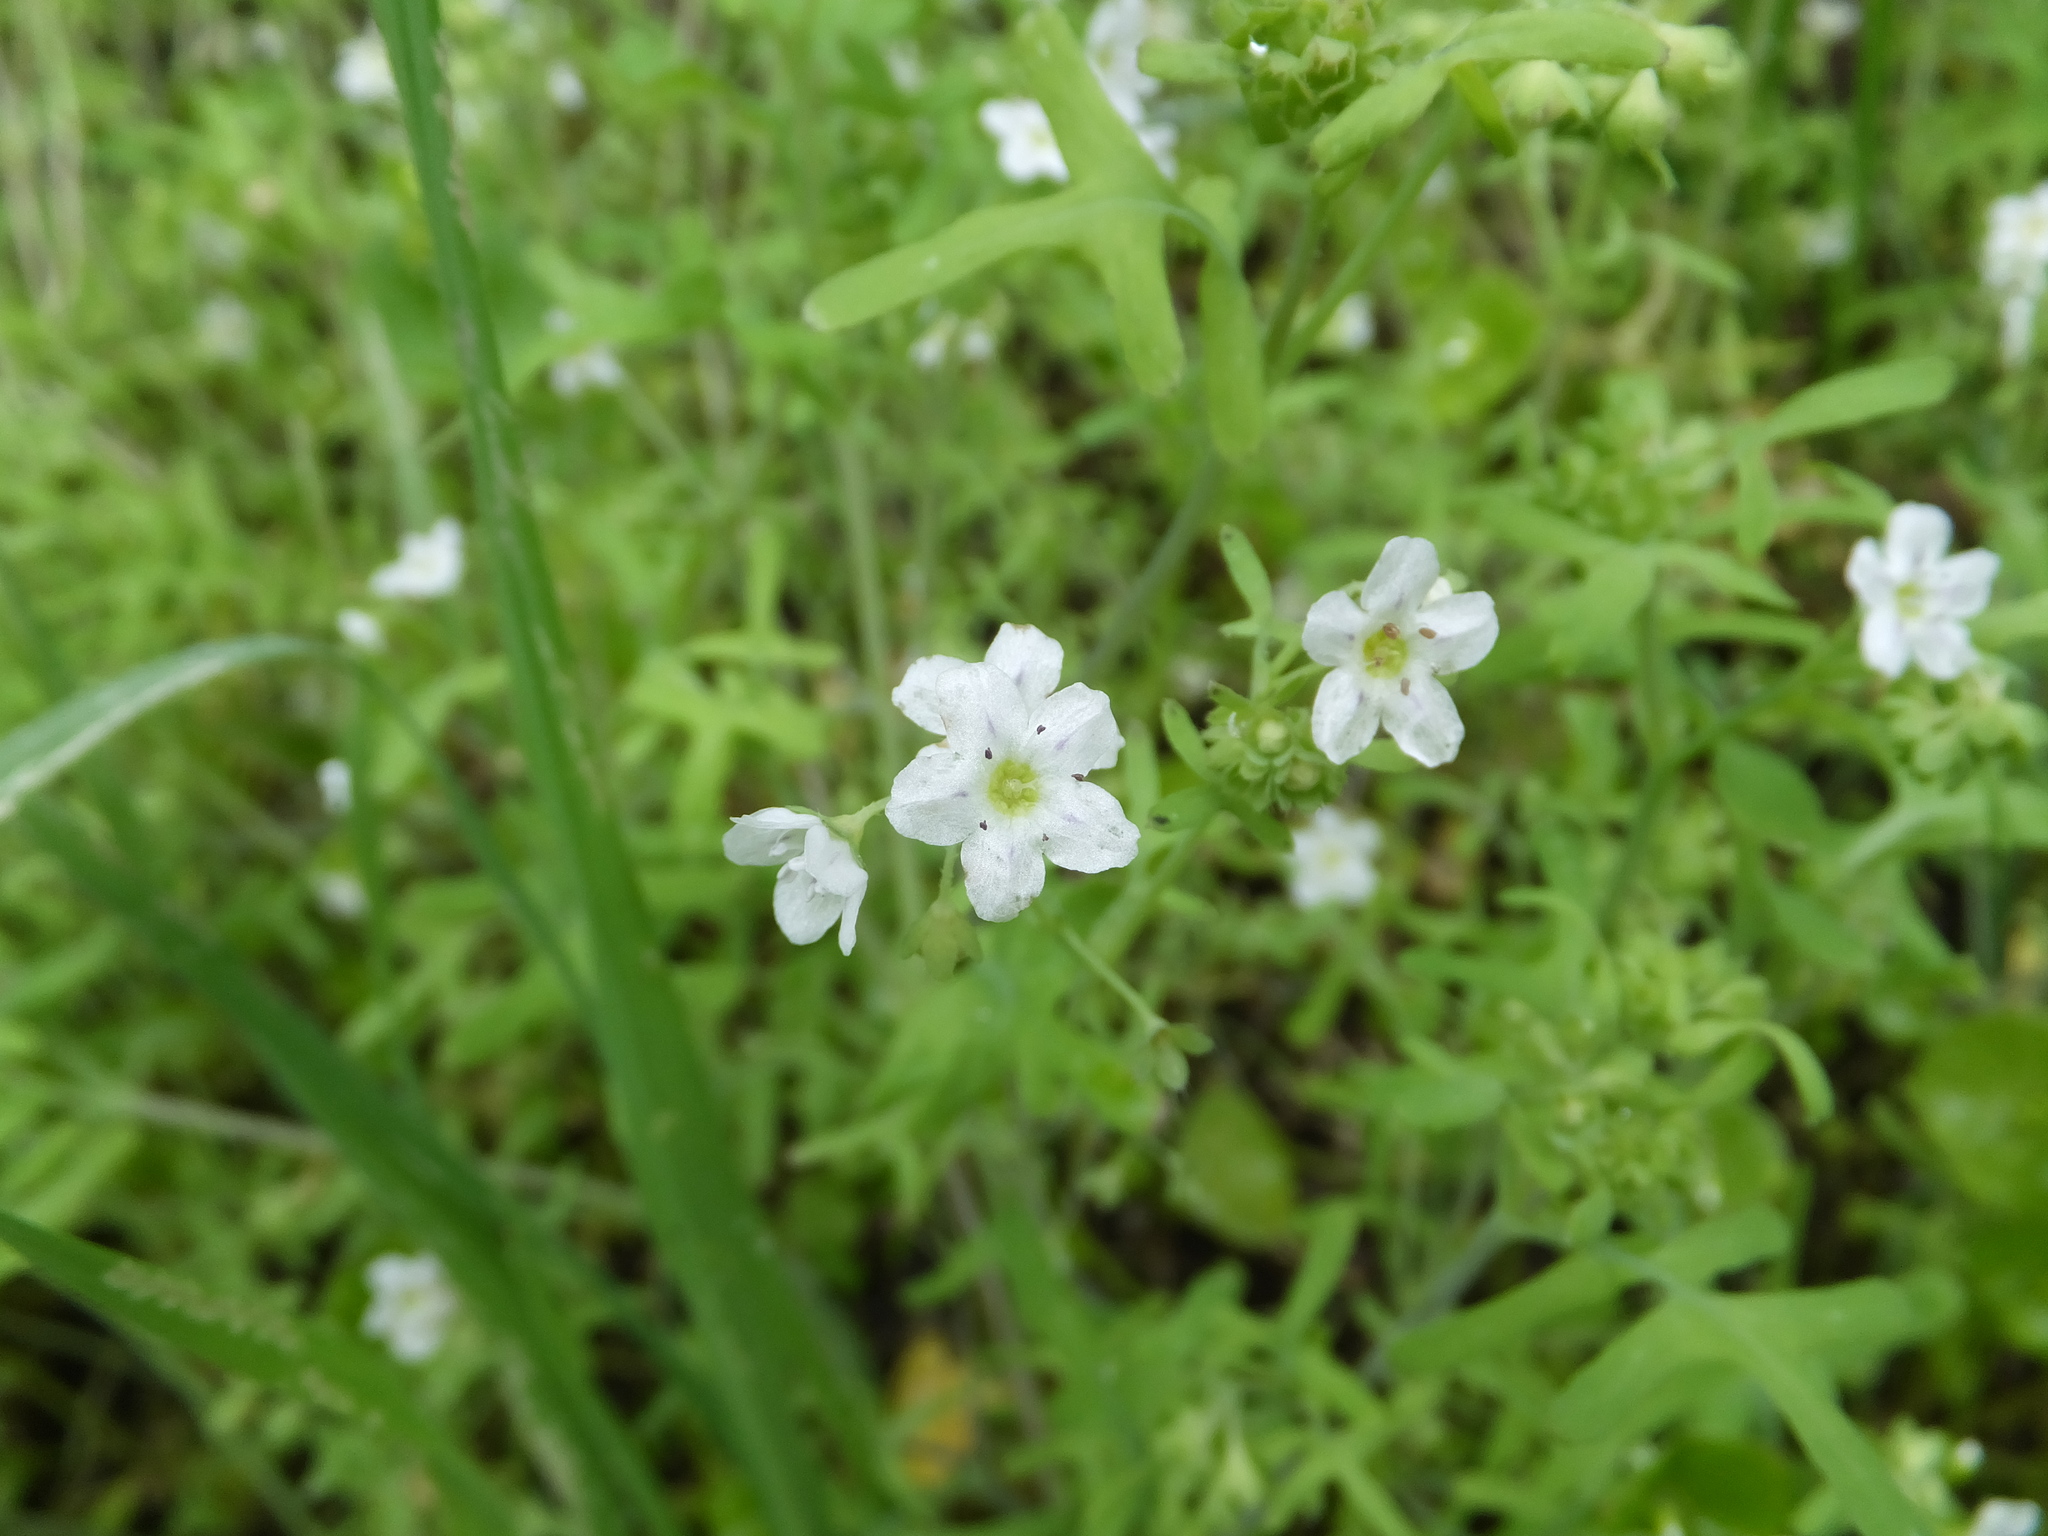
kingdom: Plantae
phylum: Tracheophyta
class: Magnoliopsida
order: Boraginales
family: Hydrophyllaceae
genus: Pholistoma
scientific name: Pholistoma membranaceum
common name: White fiesta-flower
